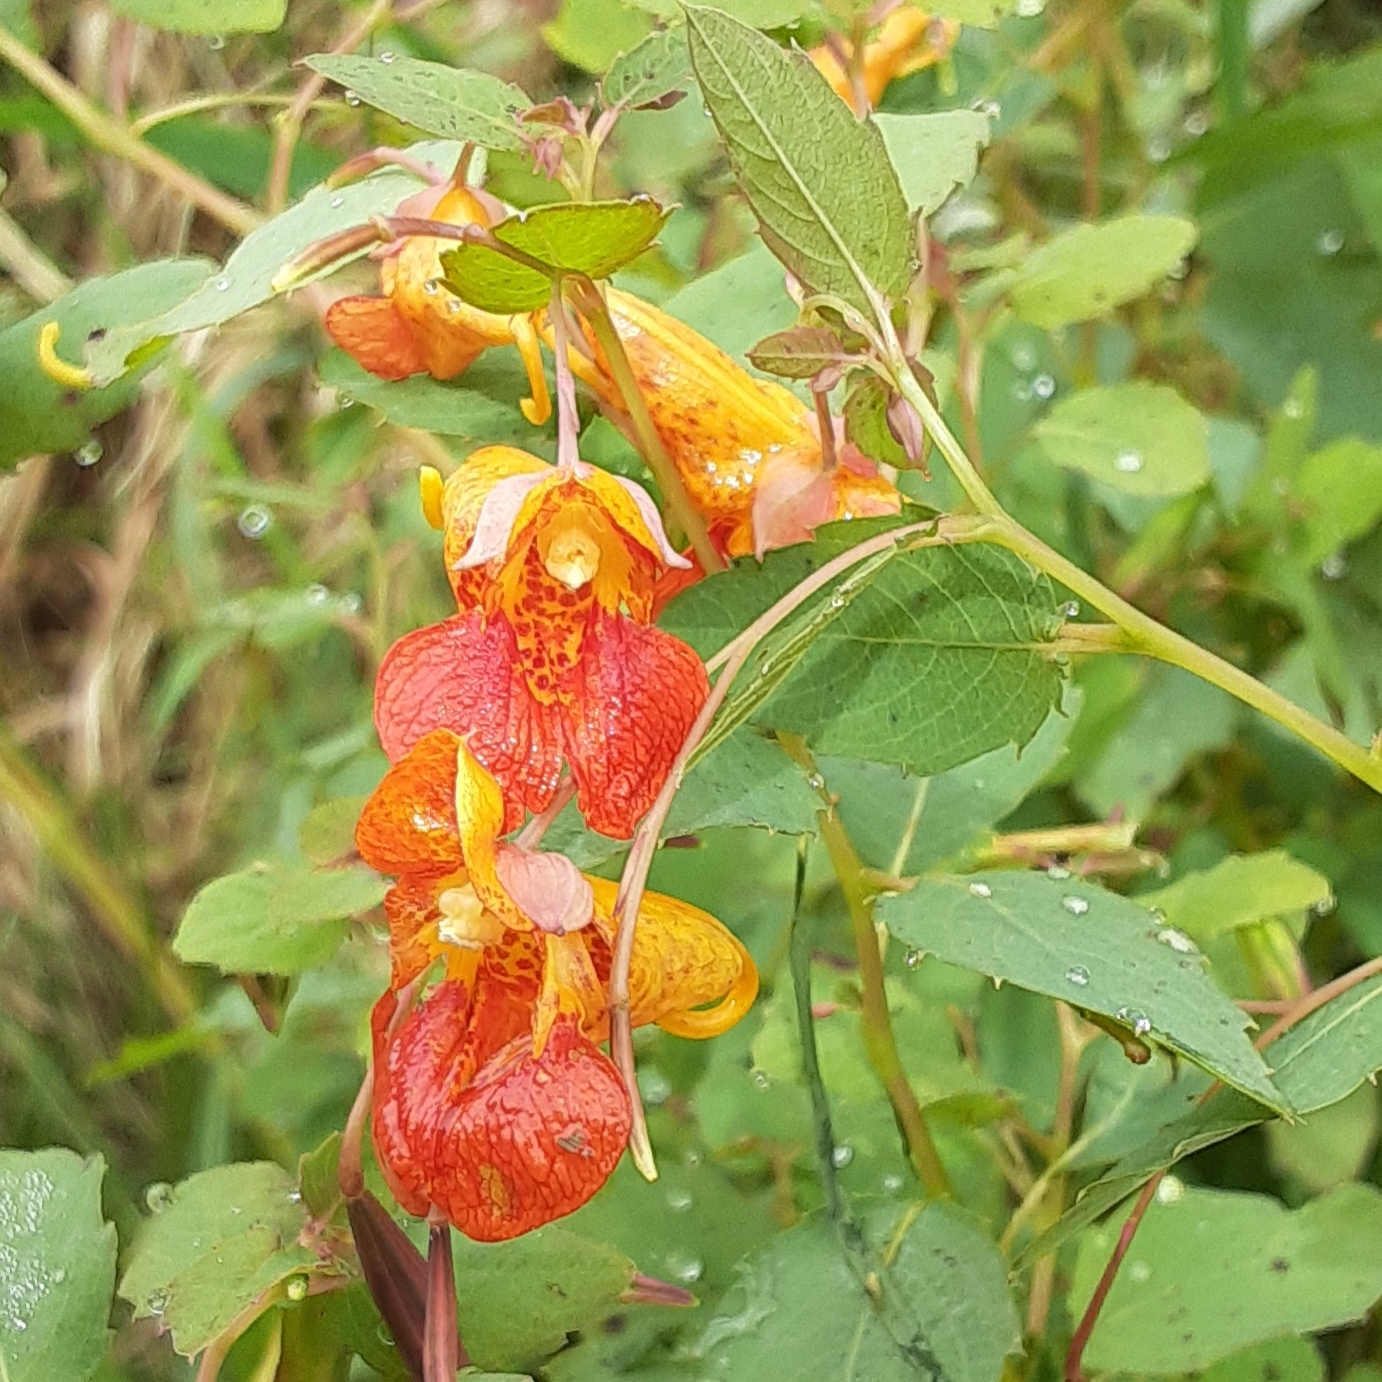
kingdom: Plantae
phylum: Tracheophyta
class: Magnoliopsida
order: Ericales
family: Balsaminaceae
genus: Impatiens
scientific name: Impatiens capensis
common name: Orange balsam
